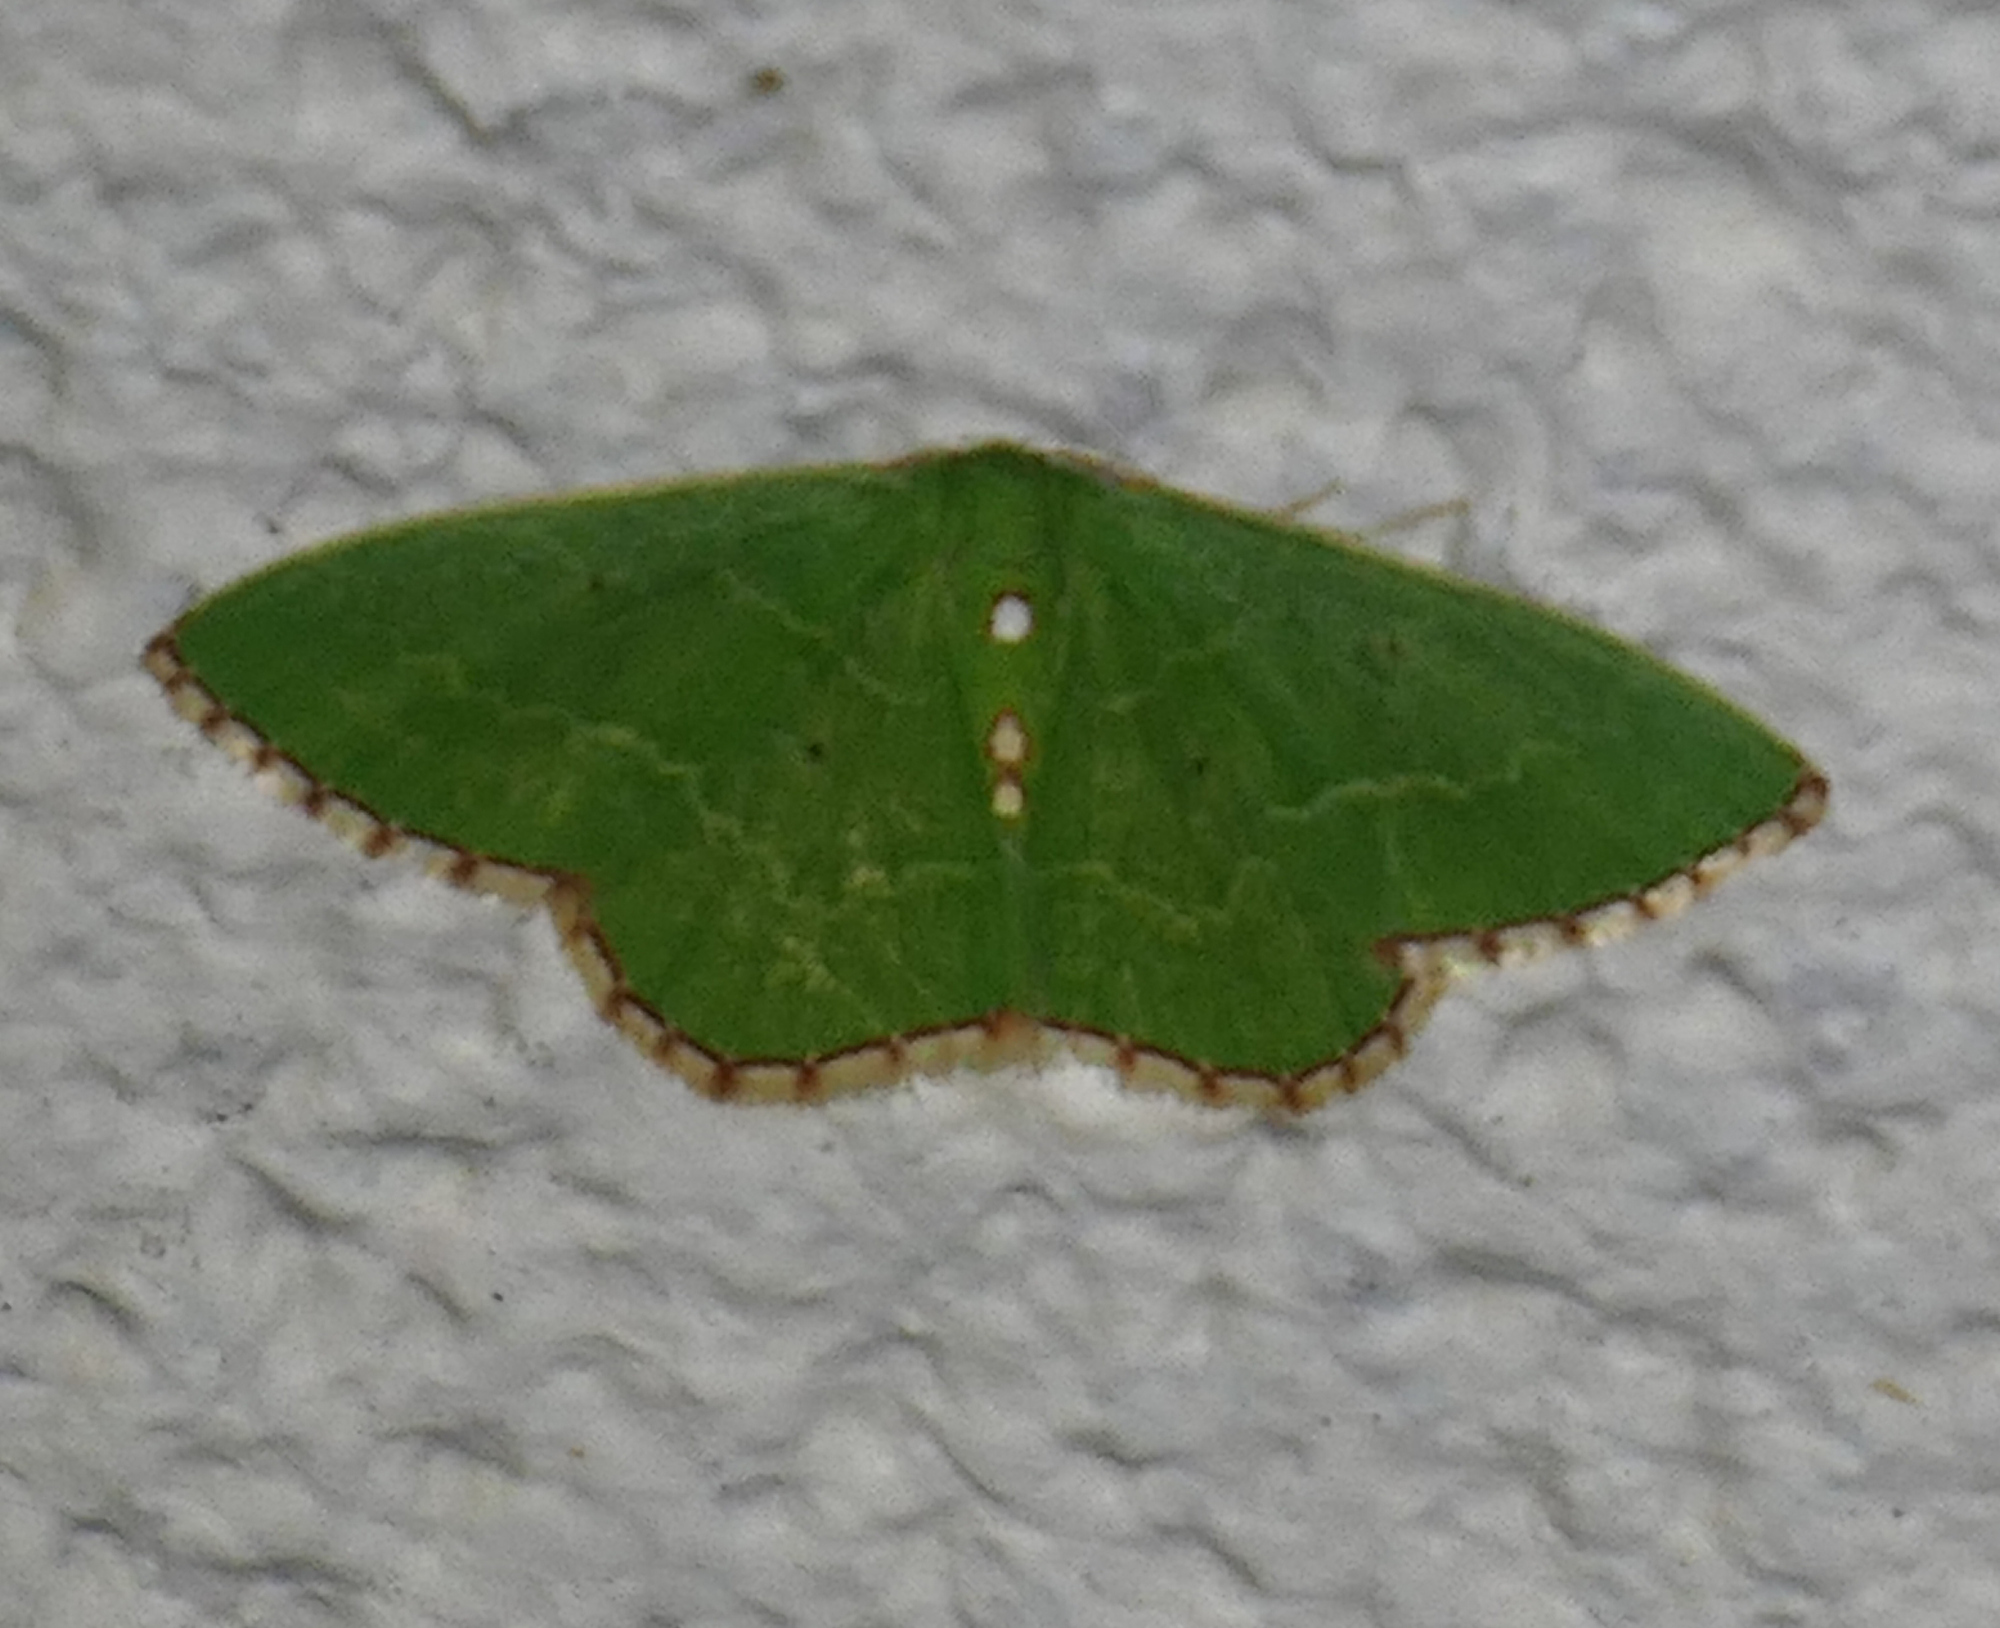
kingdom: Animalia
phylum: Arthropoda
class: Insecta
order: Lepidoptera
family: Geometridae
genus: Nemoria
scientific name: Nemoria lixaria
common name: Red-bordered emerald
